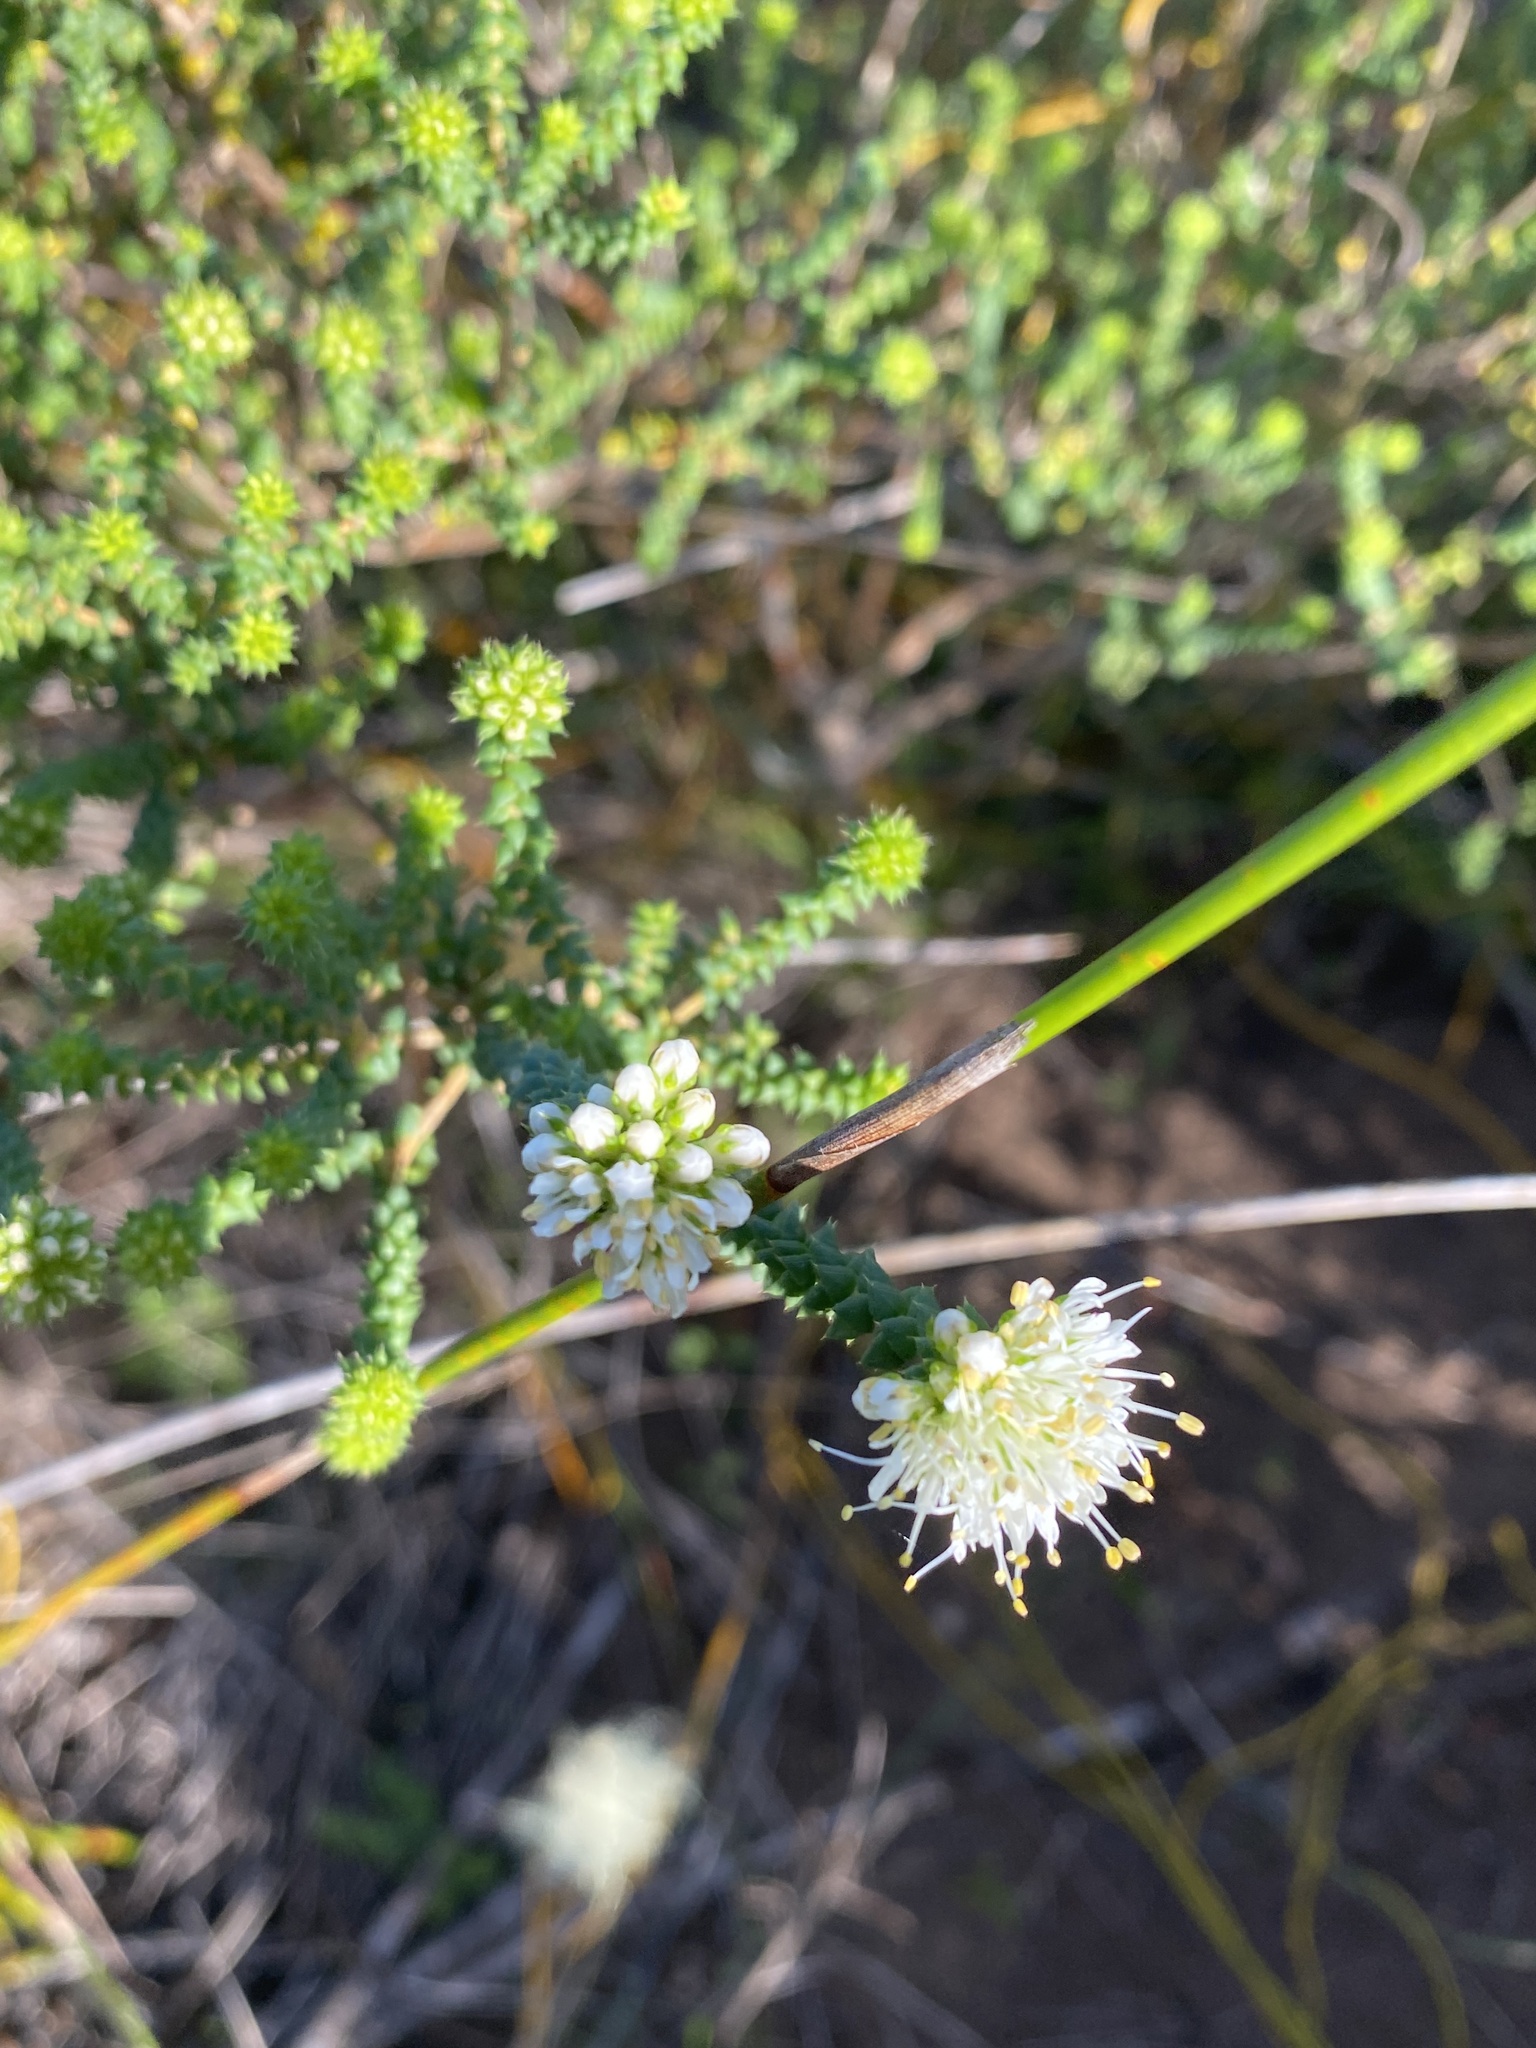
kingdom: Plantae
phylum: Tracheophyta
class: Magnoliopsida
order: Sapindales
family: Rutaceae
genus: Agathosma
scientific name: Agathosma apiculata
